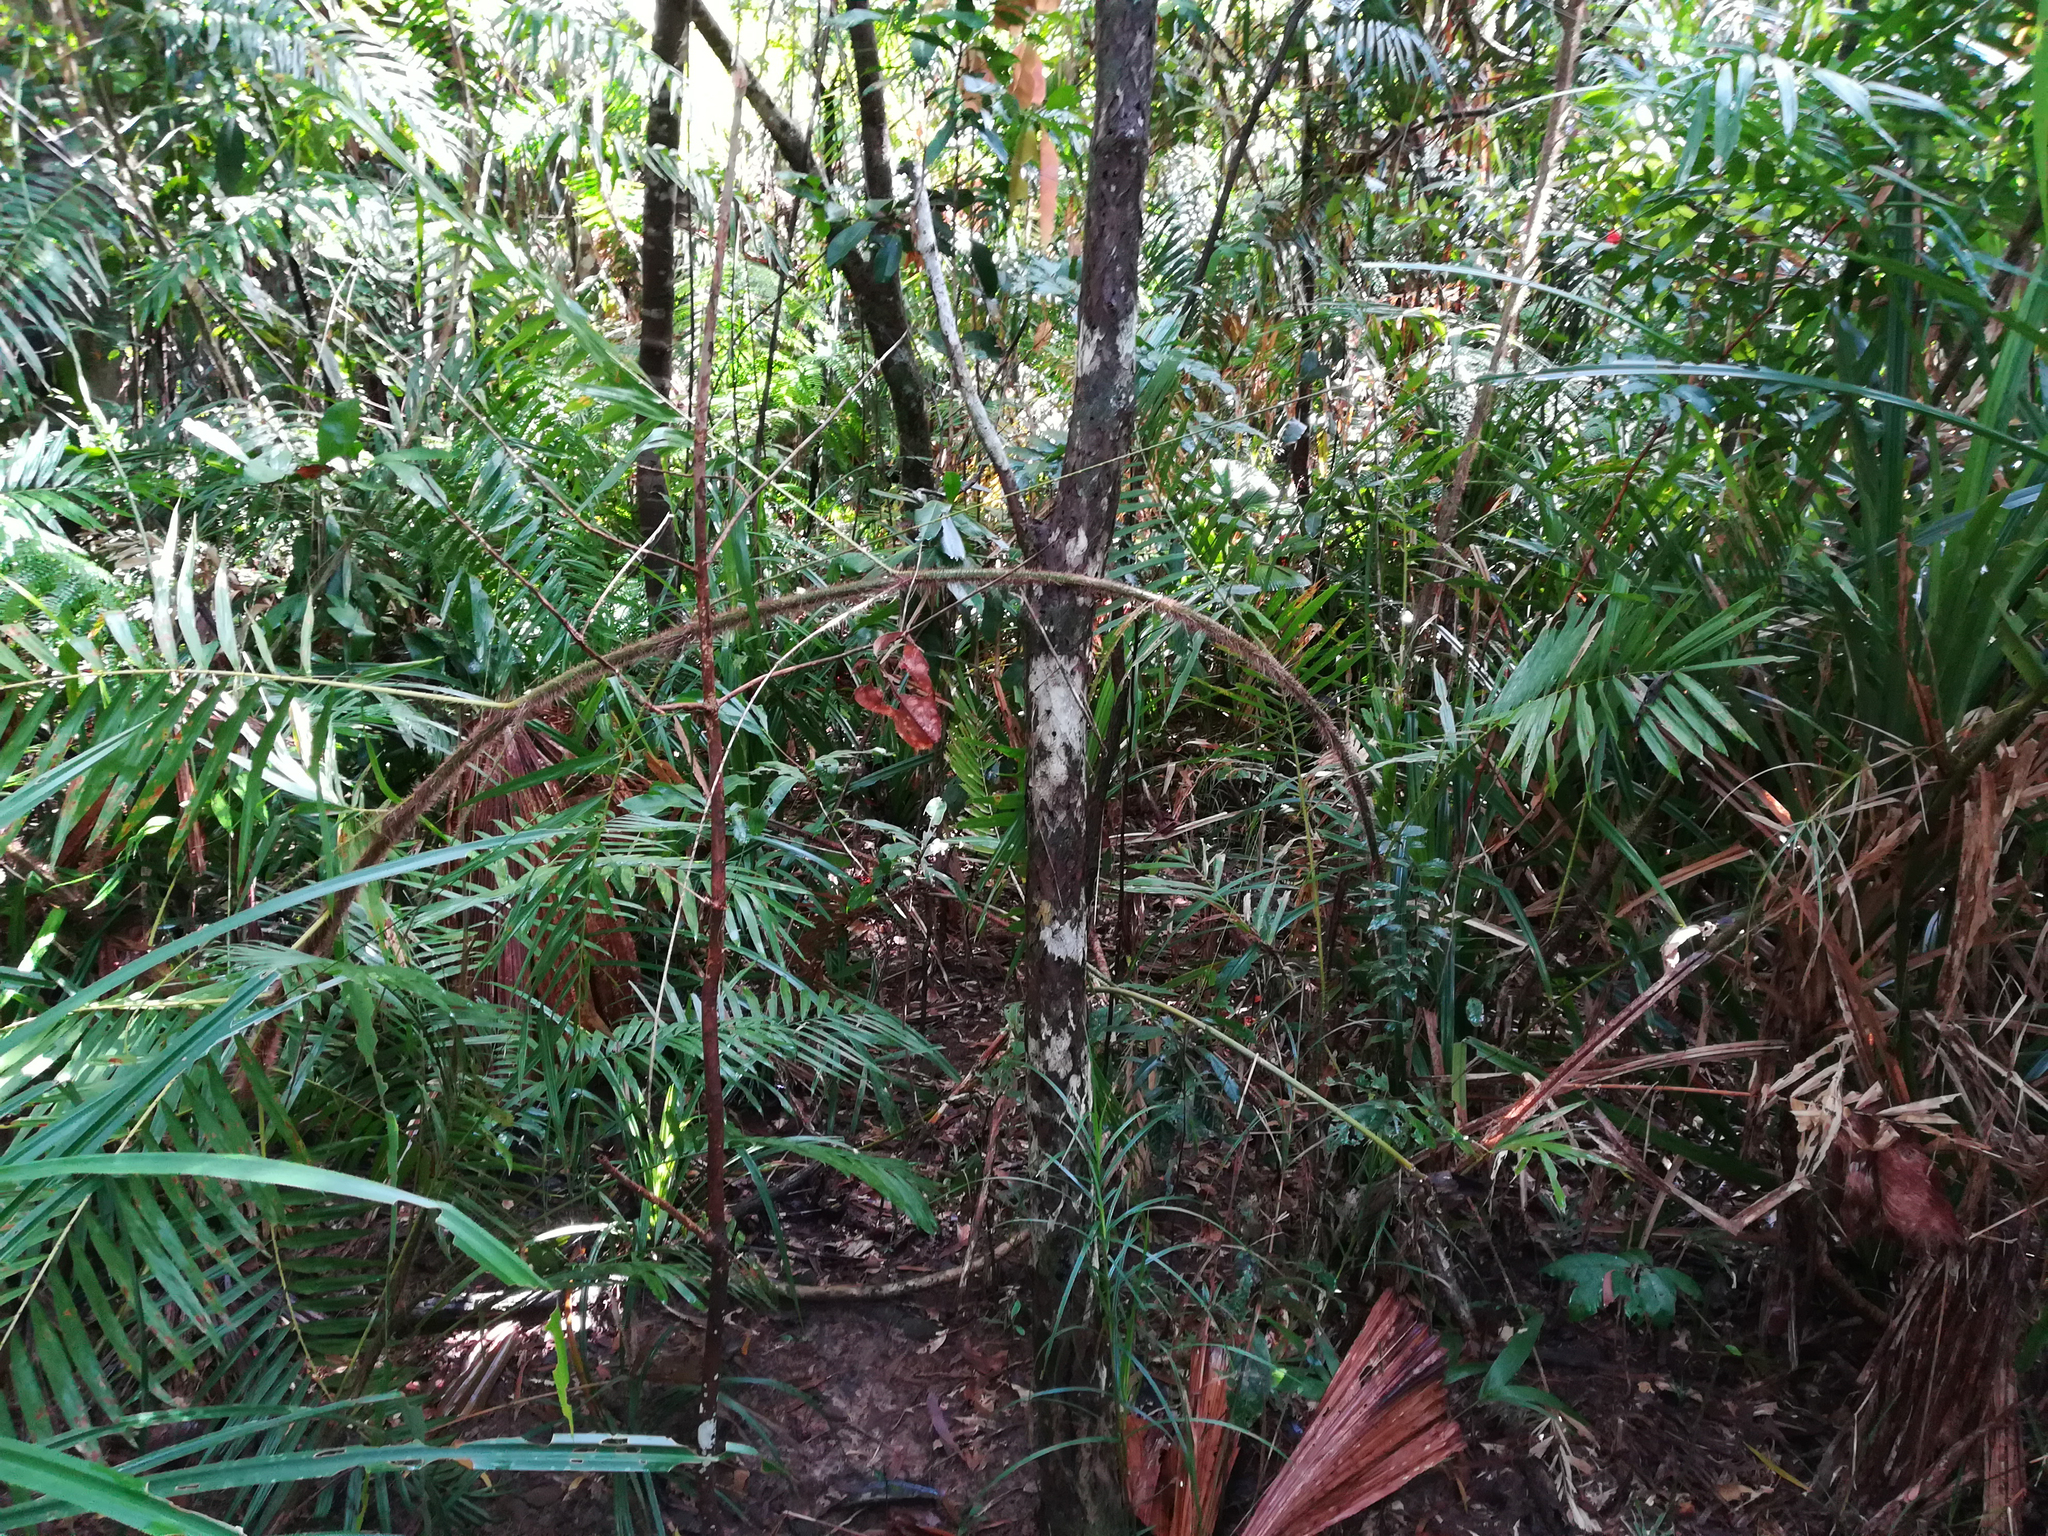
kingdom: Plantae
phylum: Tracheophyta
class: Liliopsida
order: Arecales
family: Arecaceae
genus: Calamus
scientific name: Calamus australis
